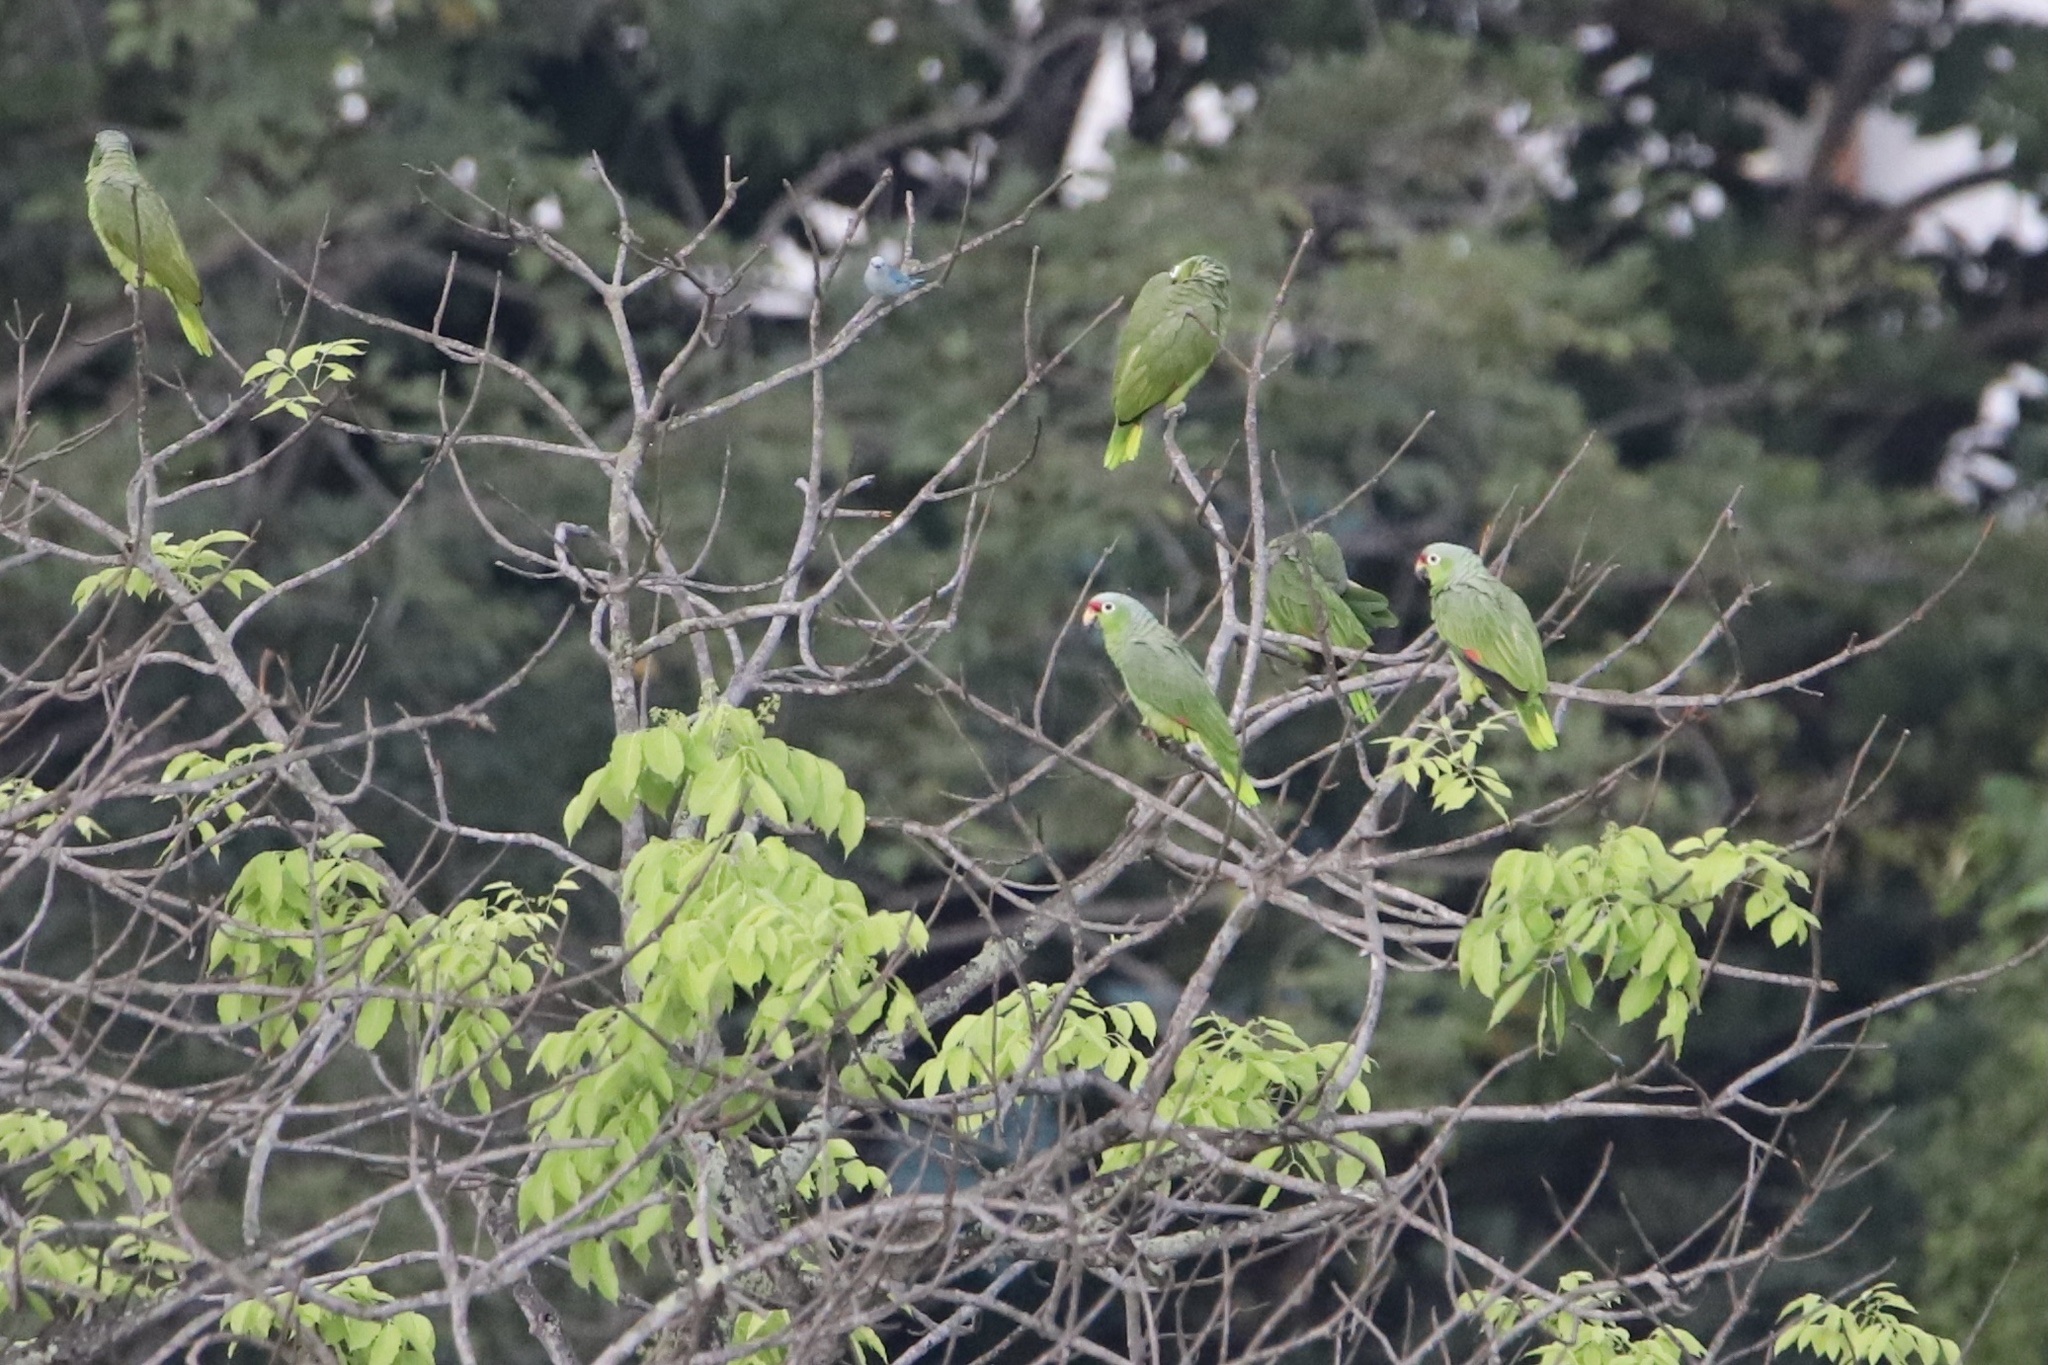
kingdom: Animalia
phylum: Chordata
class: Aves
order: Psittaciformes
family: Psittacidae
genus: Amazona
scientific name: Amazona autumnalis
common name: Red-lored amazon
